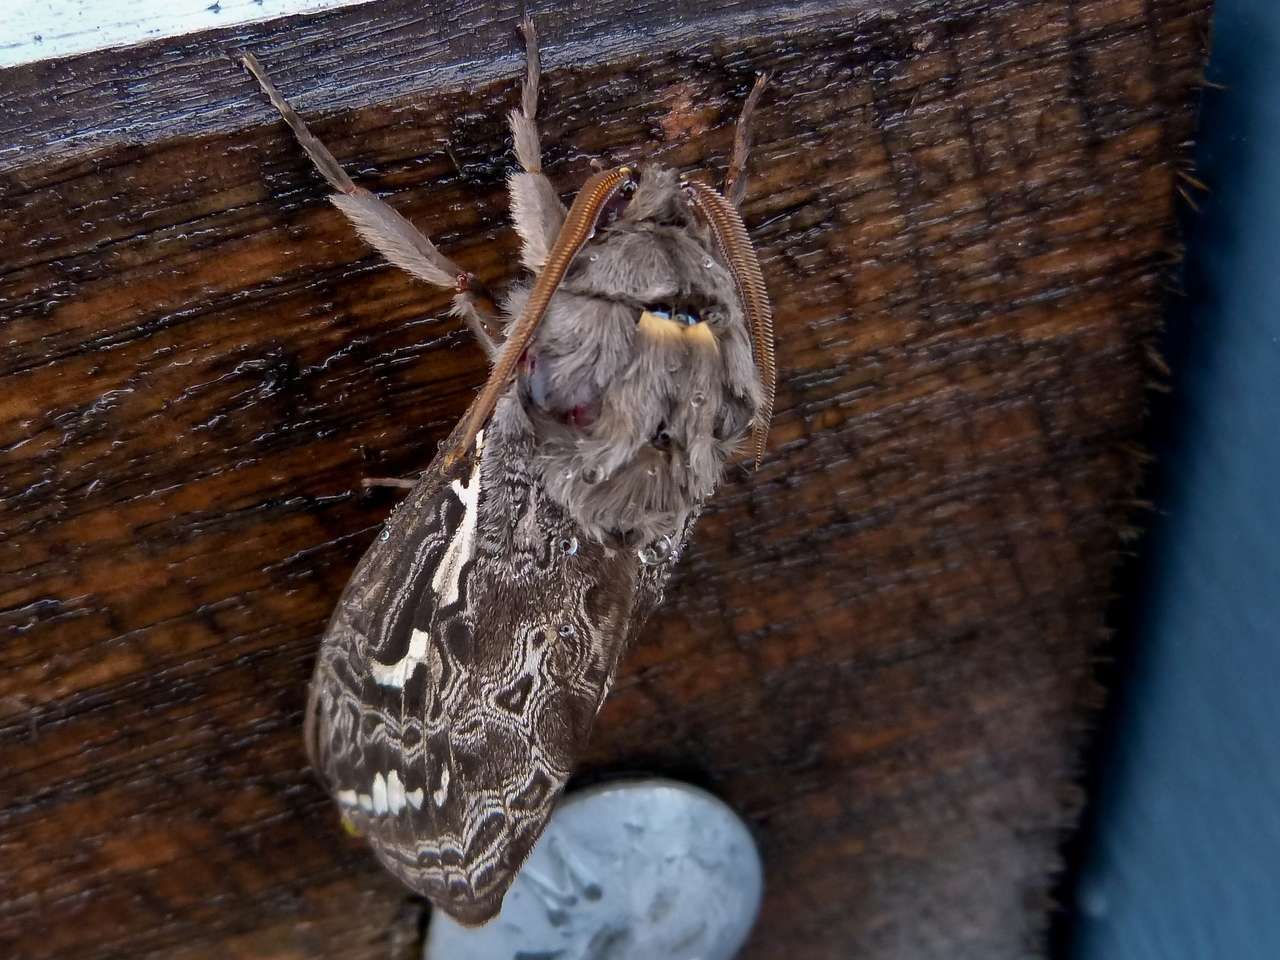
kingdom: Animalia
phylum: Arthropoda
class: Insecta
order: Lepidoptera
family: Hepialidae
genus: Abantiades
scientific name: Abantiades atripalpis
